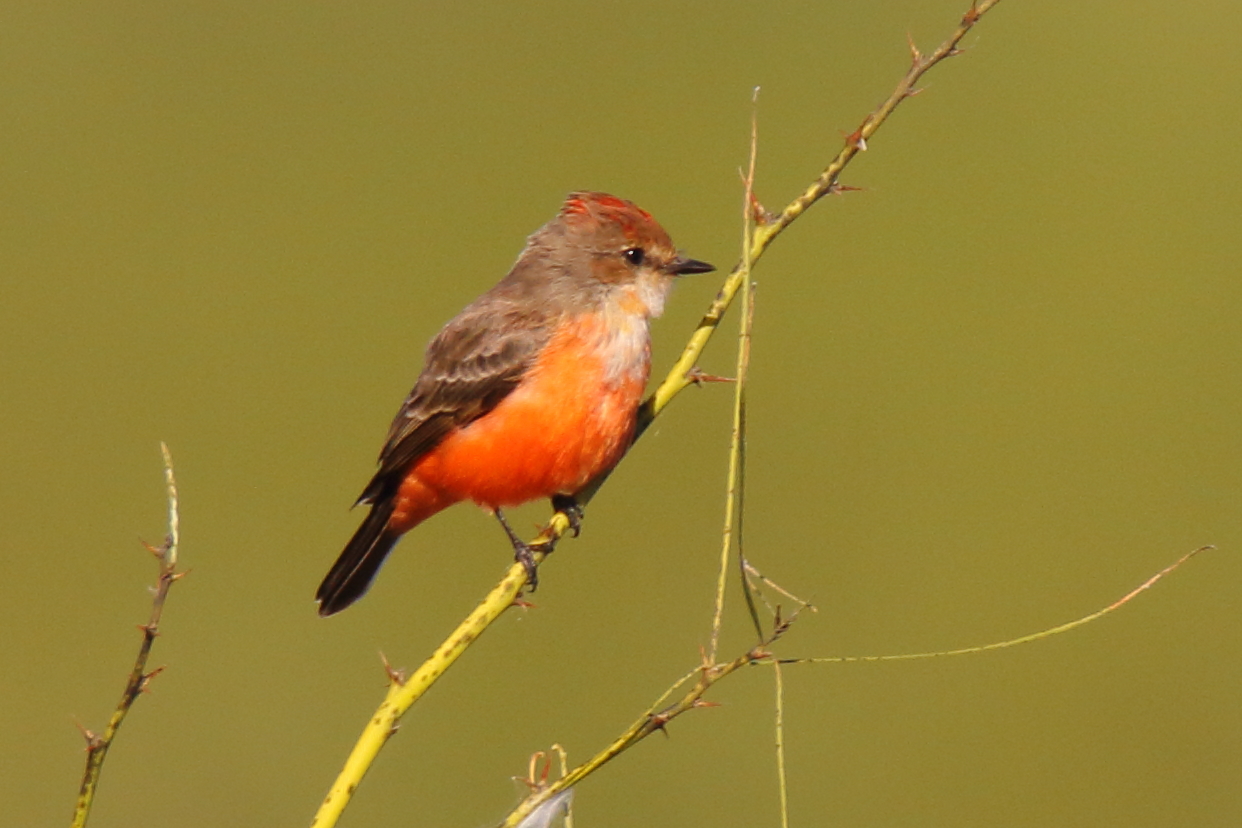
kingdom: Animalia
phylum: Chordata
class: Aves
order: Passeriformes
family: Tyrannidae
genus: Pyrocephalus
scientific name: Pyrocephalus rubinus
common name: Vermilion flycatcher
